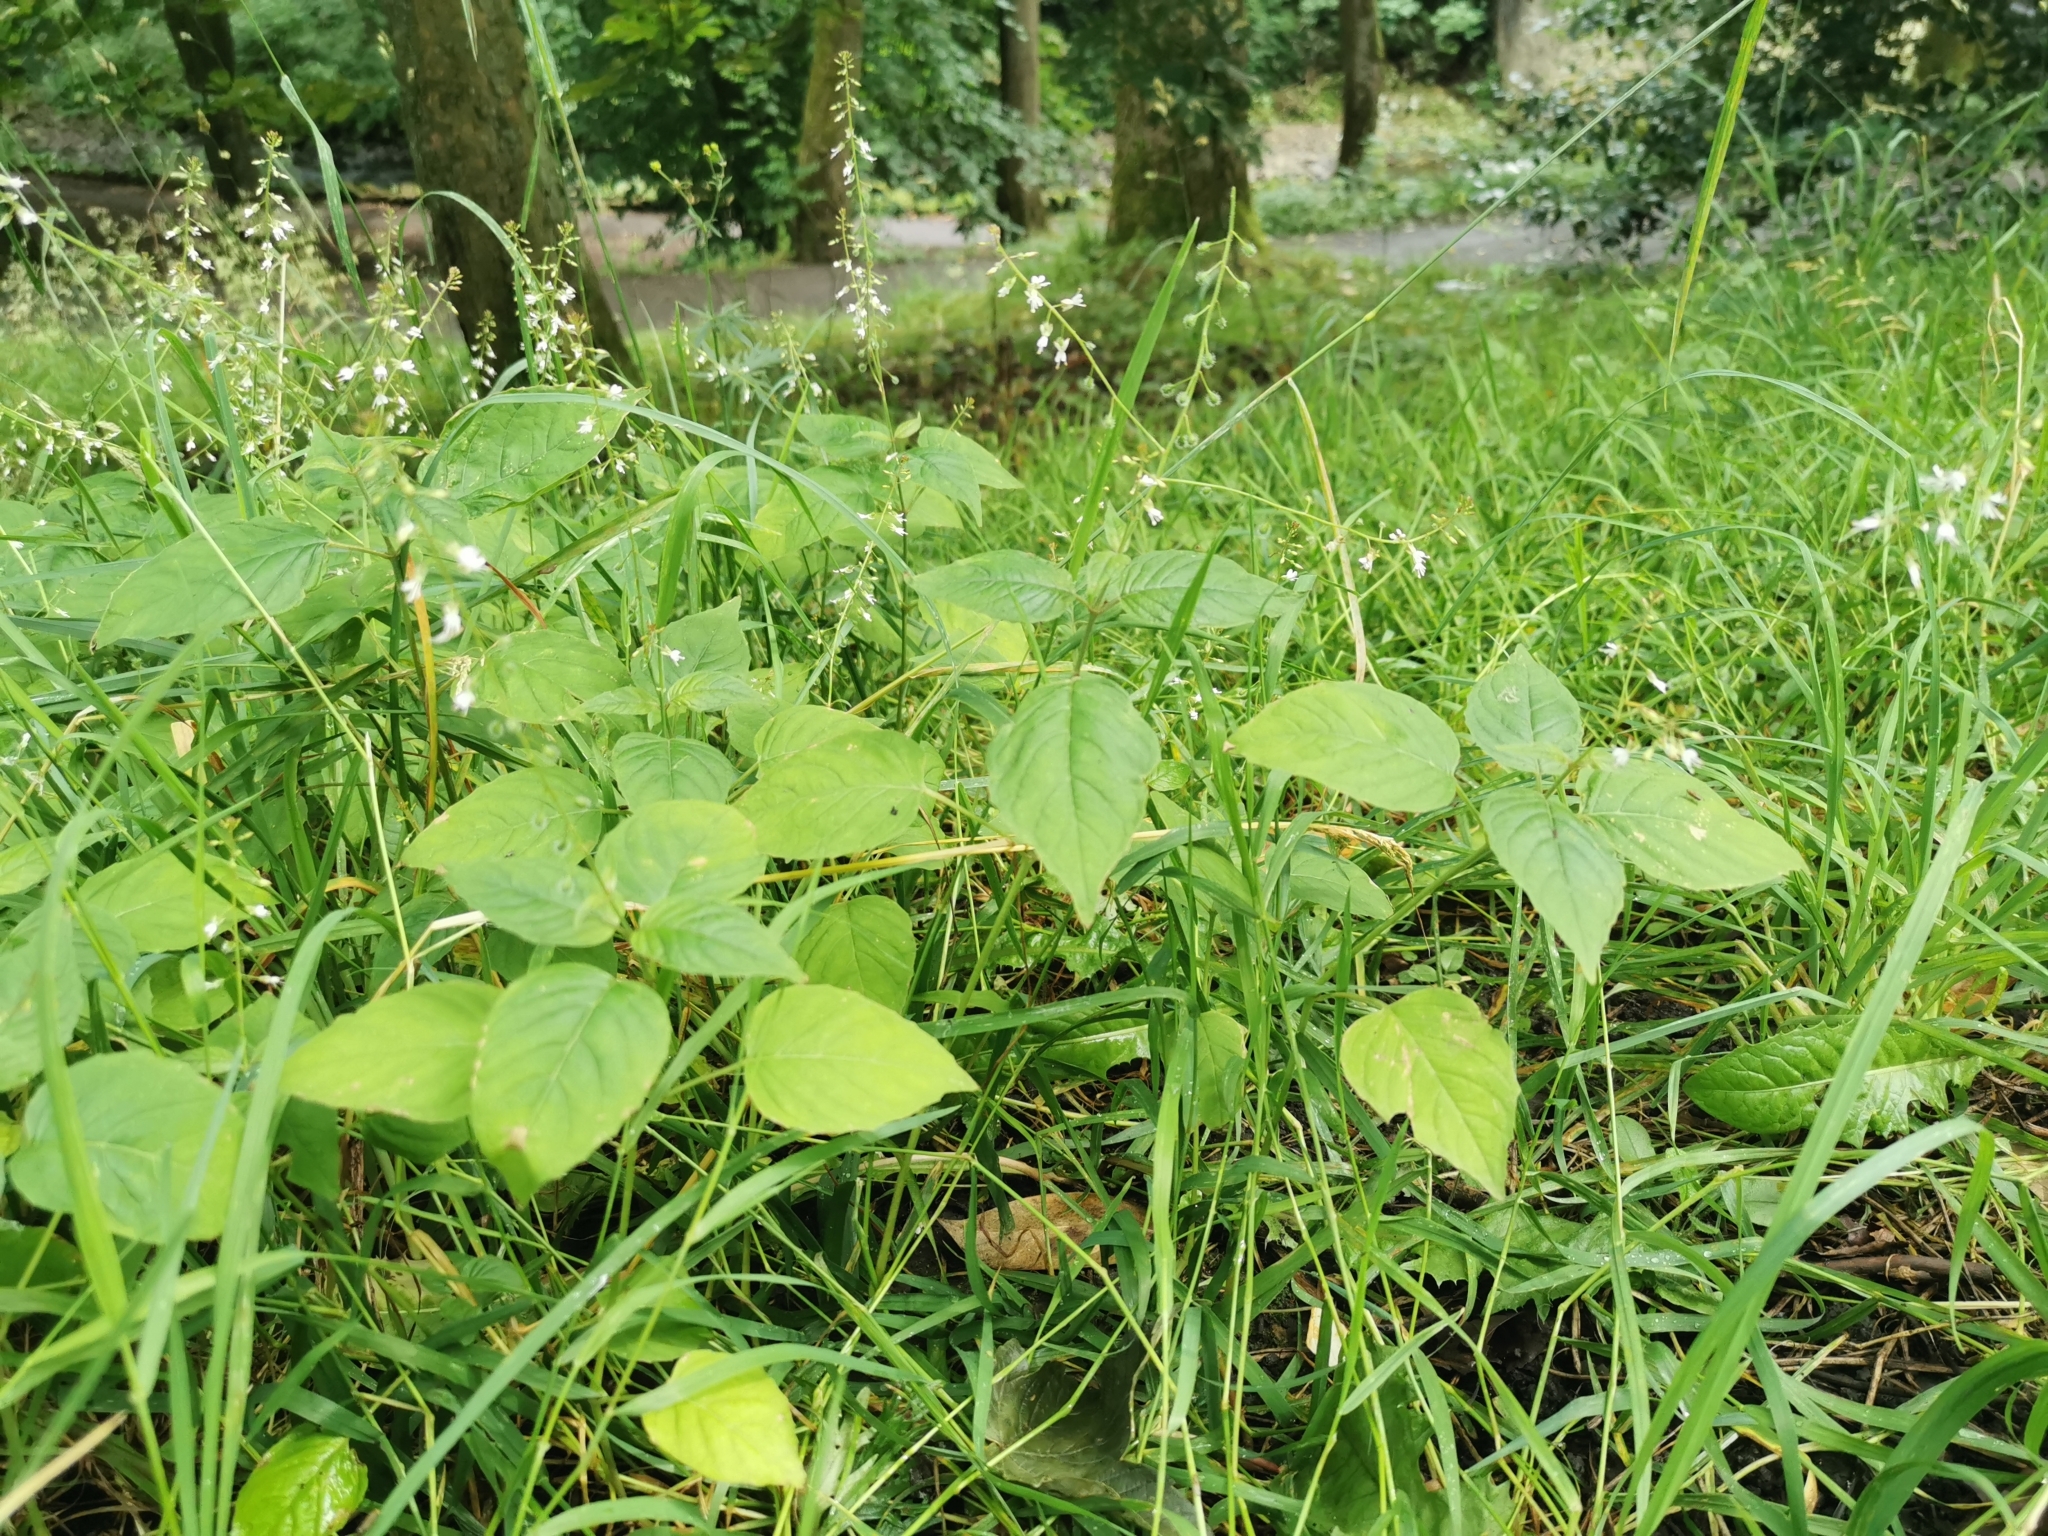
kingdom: Plantae
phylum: Tracheophyta
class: Magnoliopsida
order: Myrtales
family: Onagraceae
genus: Circaea
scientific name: Circaea lutetiana
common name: Enchanter's-nightshade
